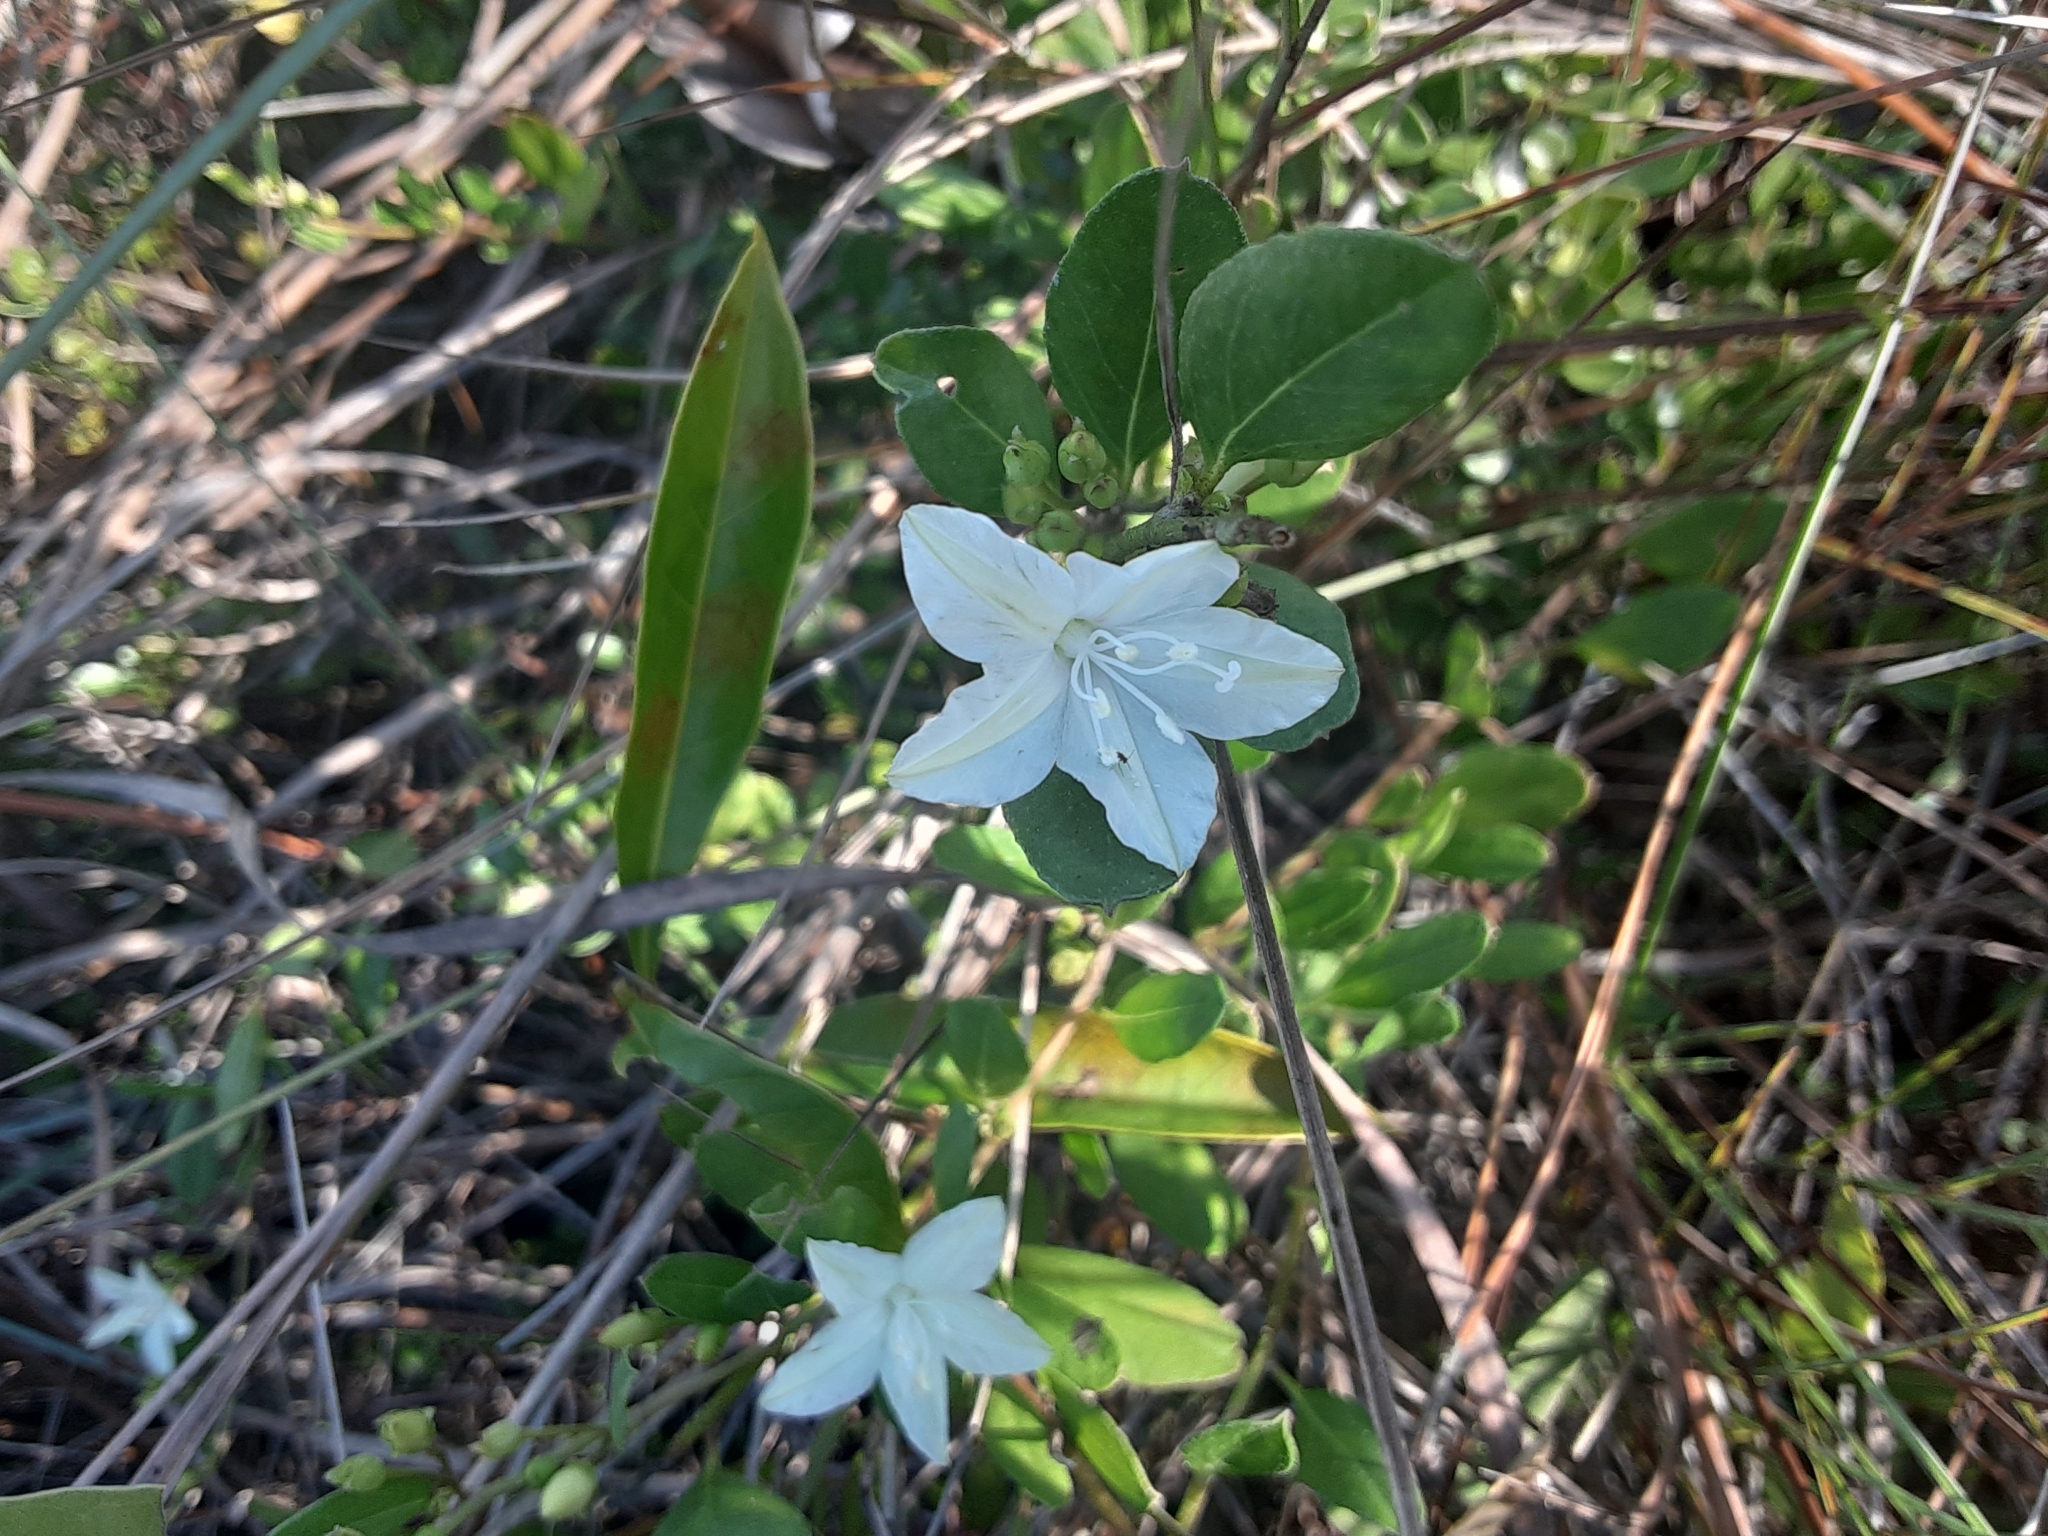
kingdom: Plantae
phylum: Tracheophyta
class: Magnoliopsida
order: Solanales
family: Convolvulaceae
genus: Jacquemontia
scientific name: Jacquemontia curtissii
